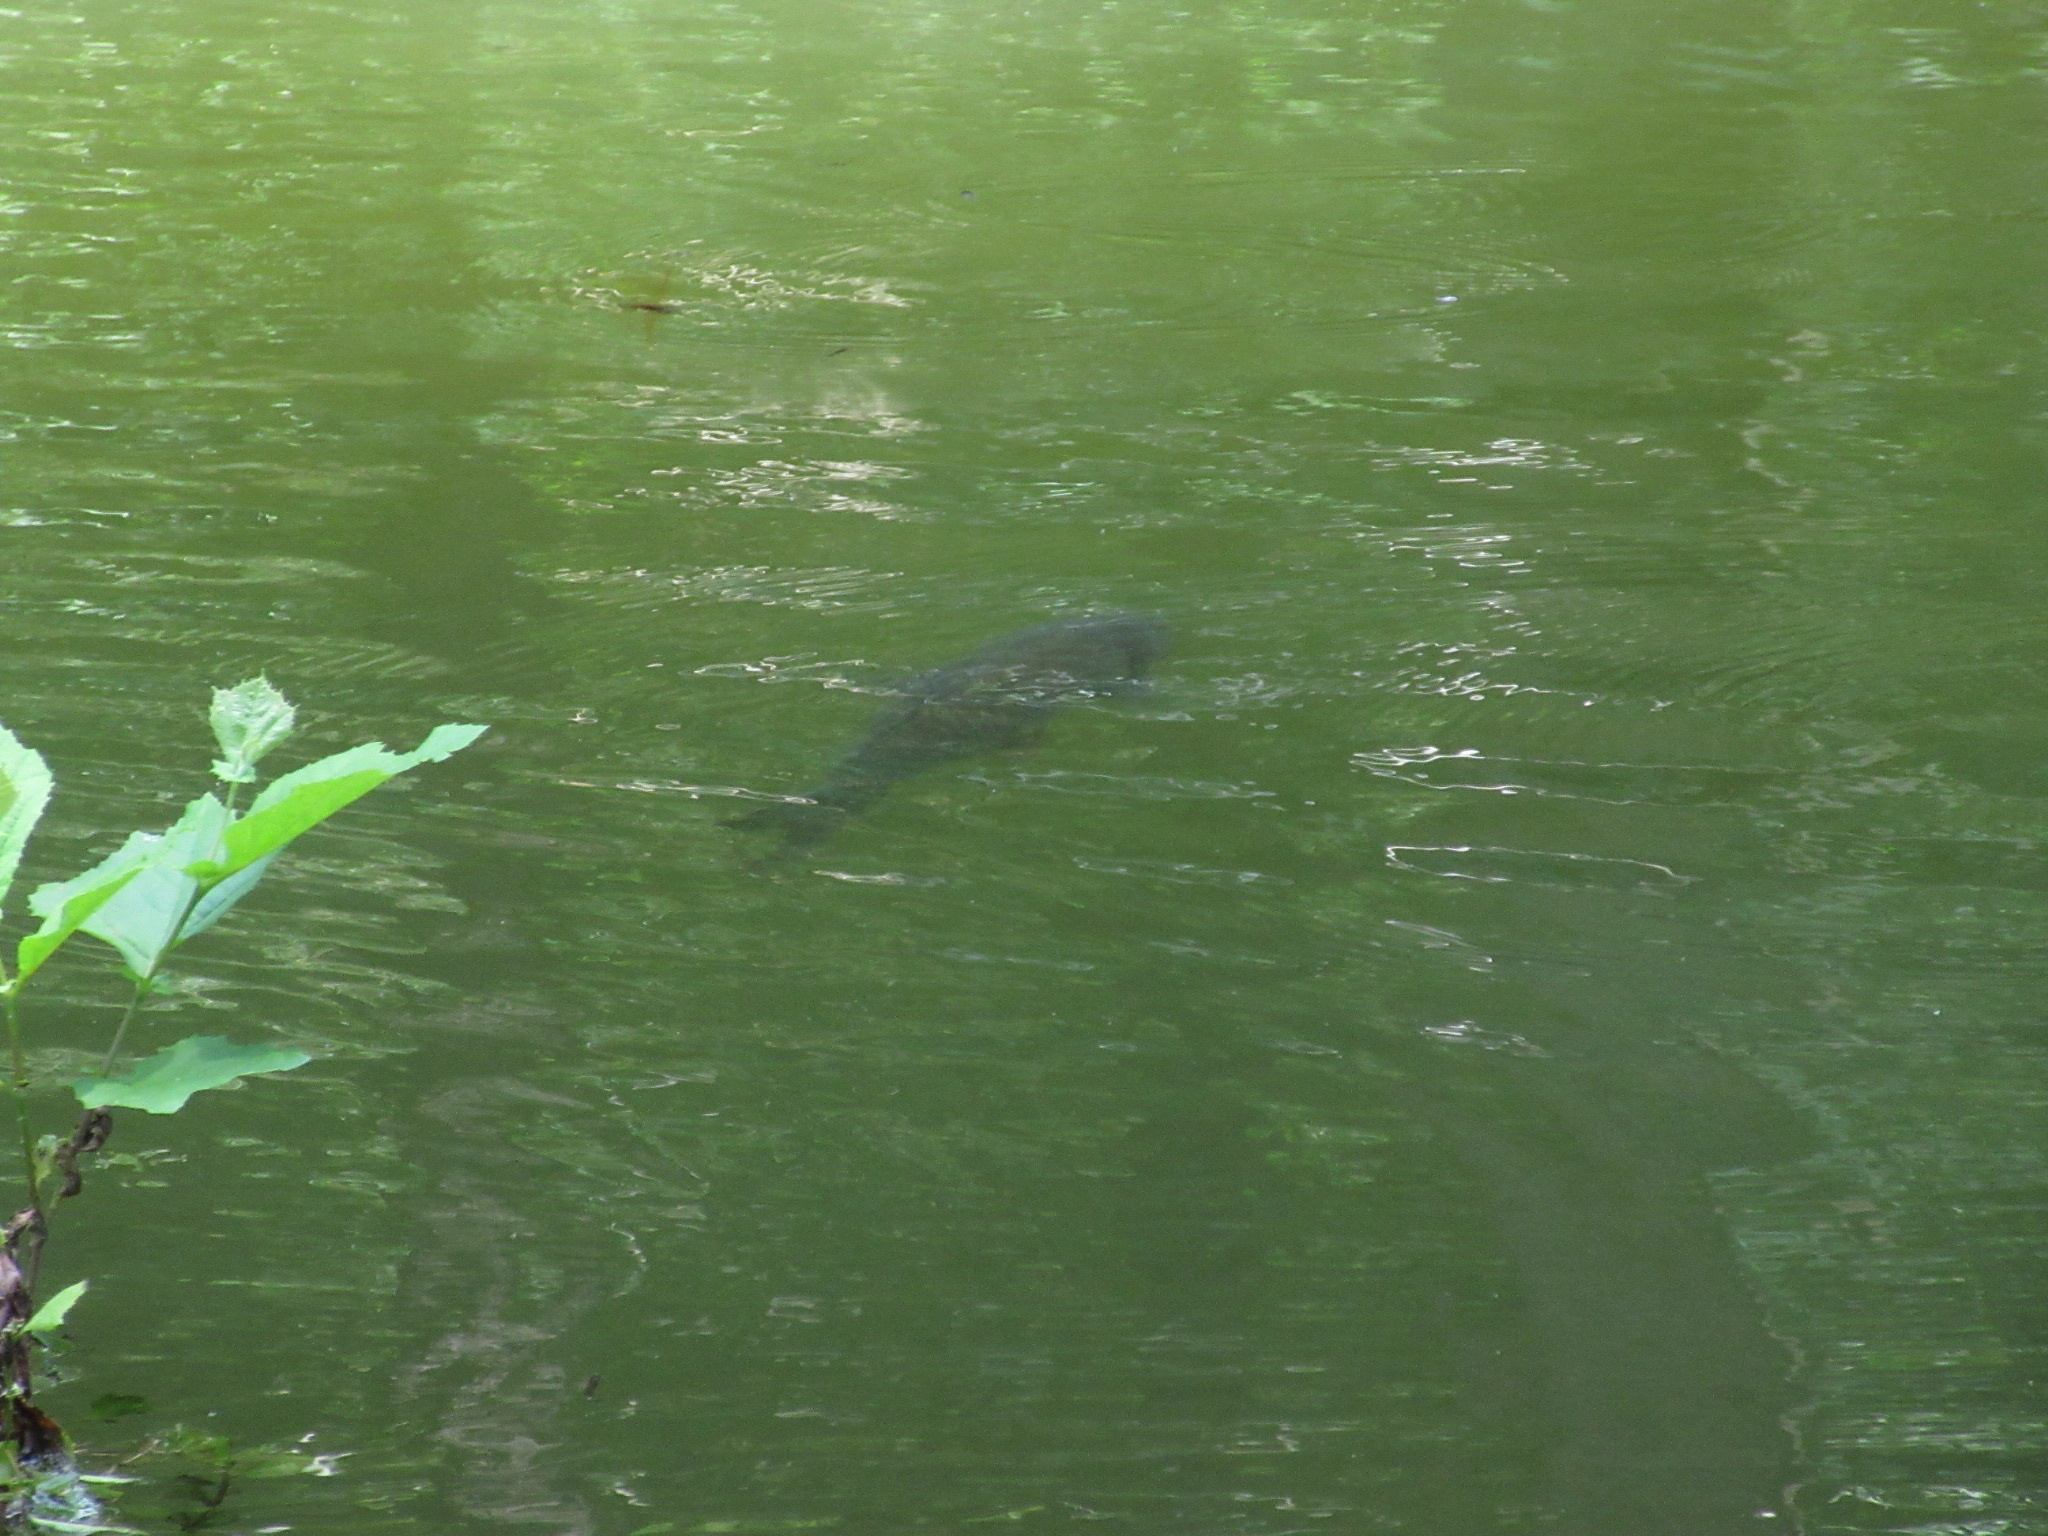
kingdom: Animalia
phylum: Chordata
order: Cypriniformes
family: Cyprinidae
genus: Cyprinus
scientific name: Cyprinus carpio
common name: Common carp
